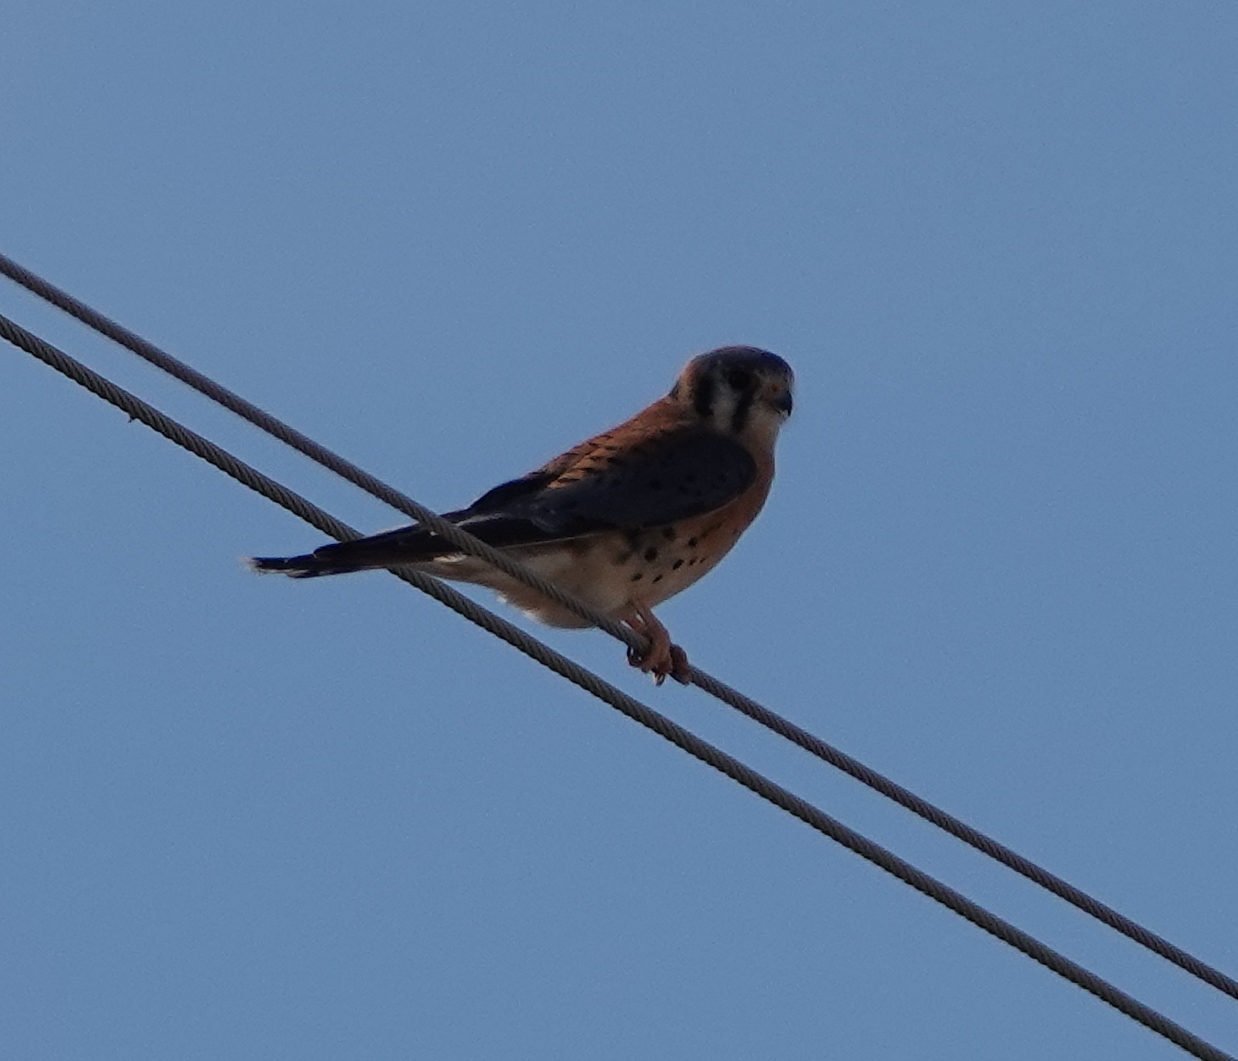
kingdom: Animalia
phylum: Chordata
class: Aves
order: Falconiformes
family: Falconidae
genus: Falco
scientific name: Falco sparverius
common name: American kestrel
